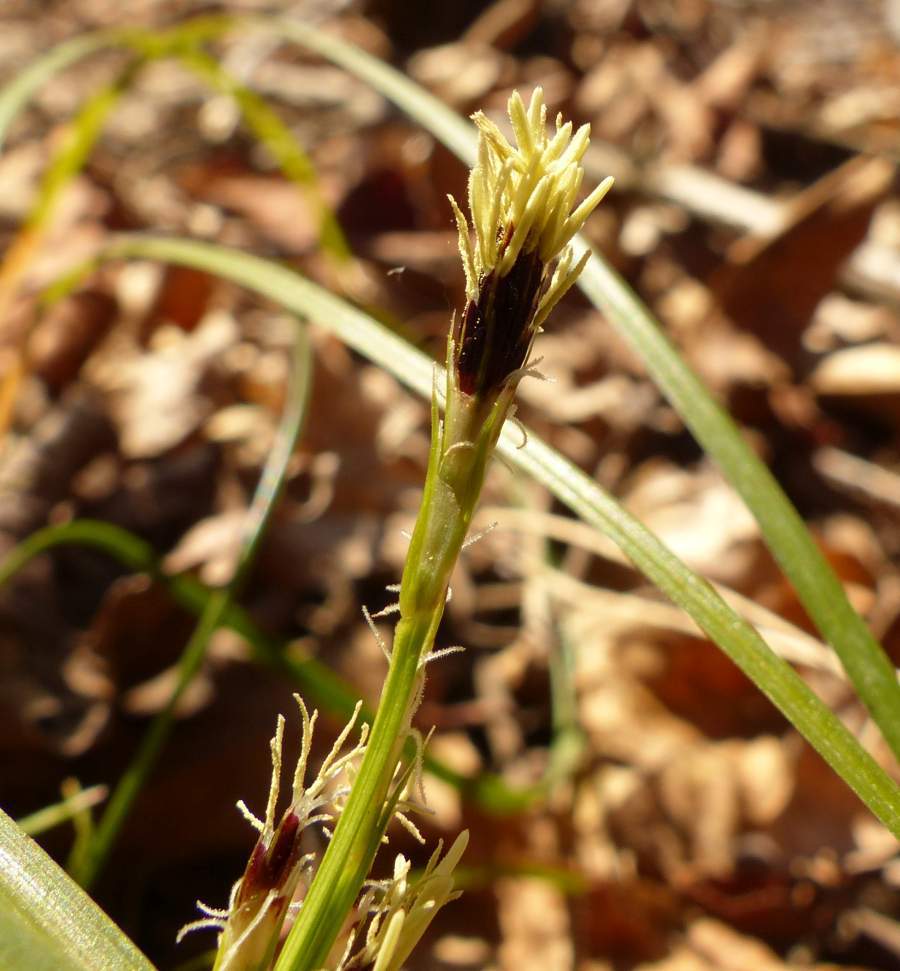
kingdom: Plantae
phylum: Tracheophyta
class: Liliopsida
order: Poales
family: Cyperaceae
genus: Carex
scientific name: Carex pedunculata
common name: Pedunculate sedge
